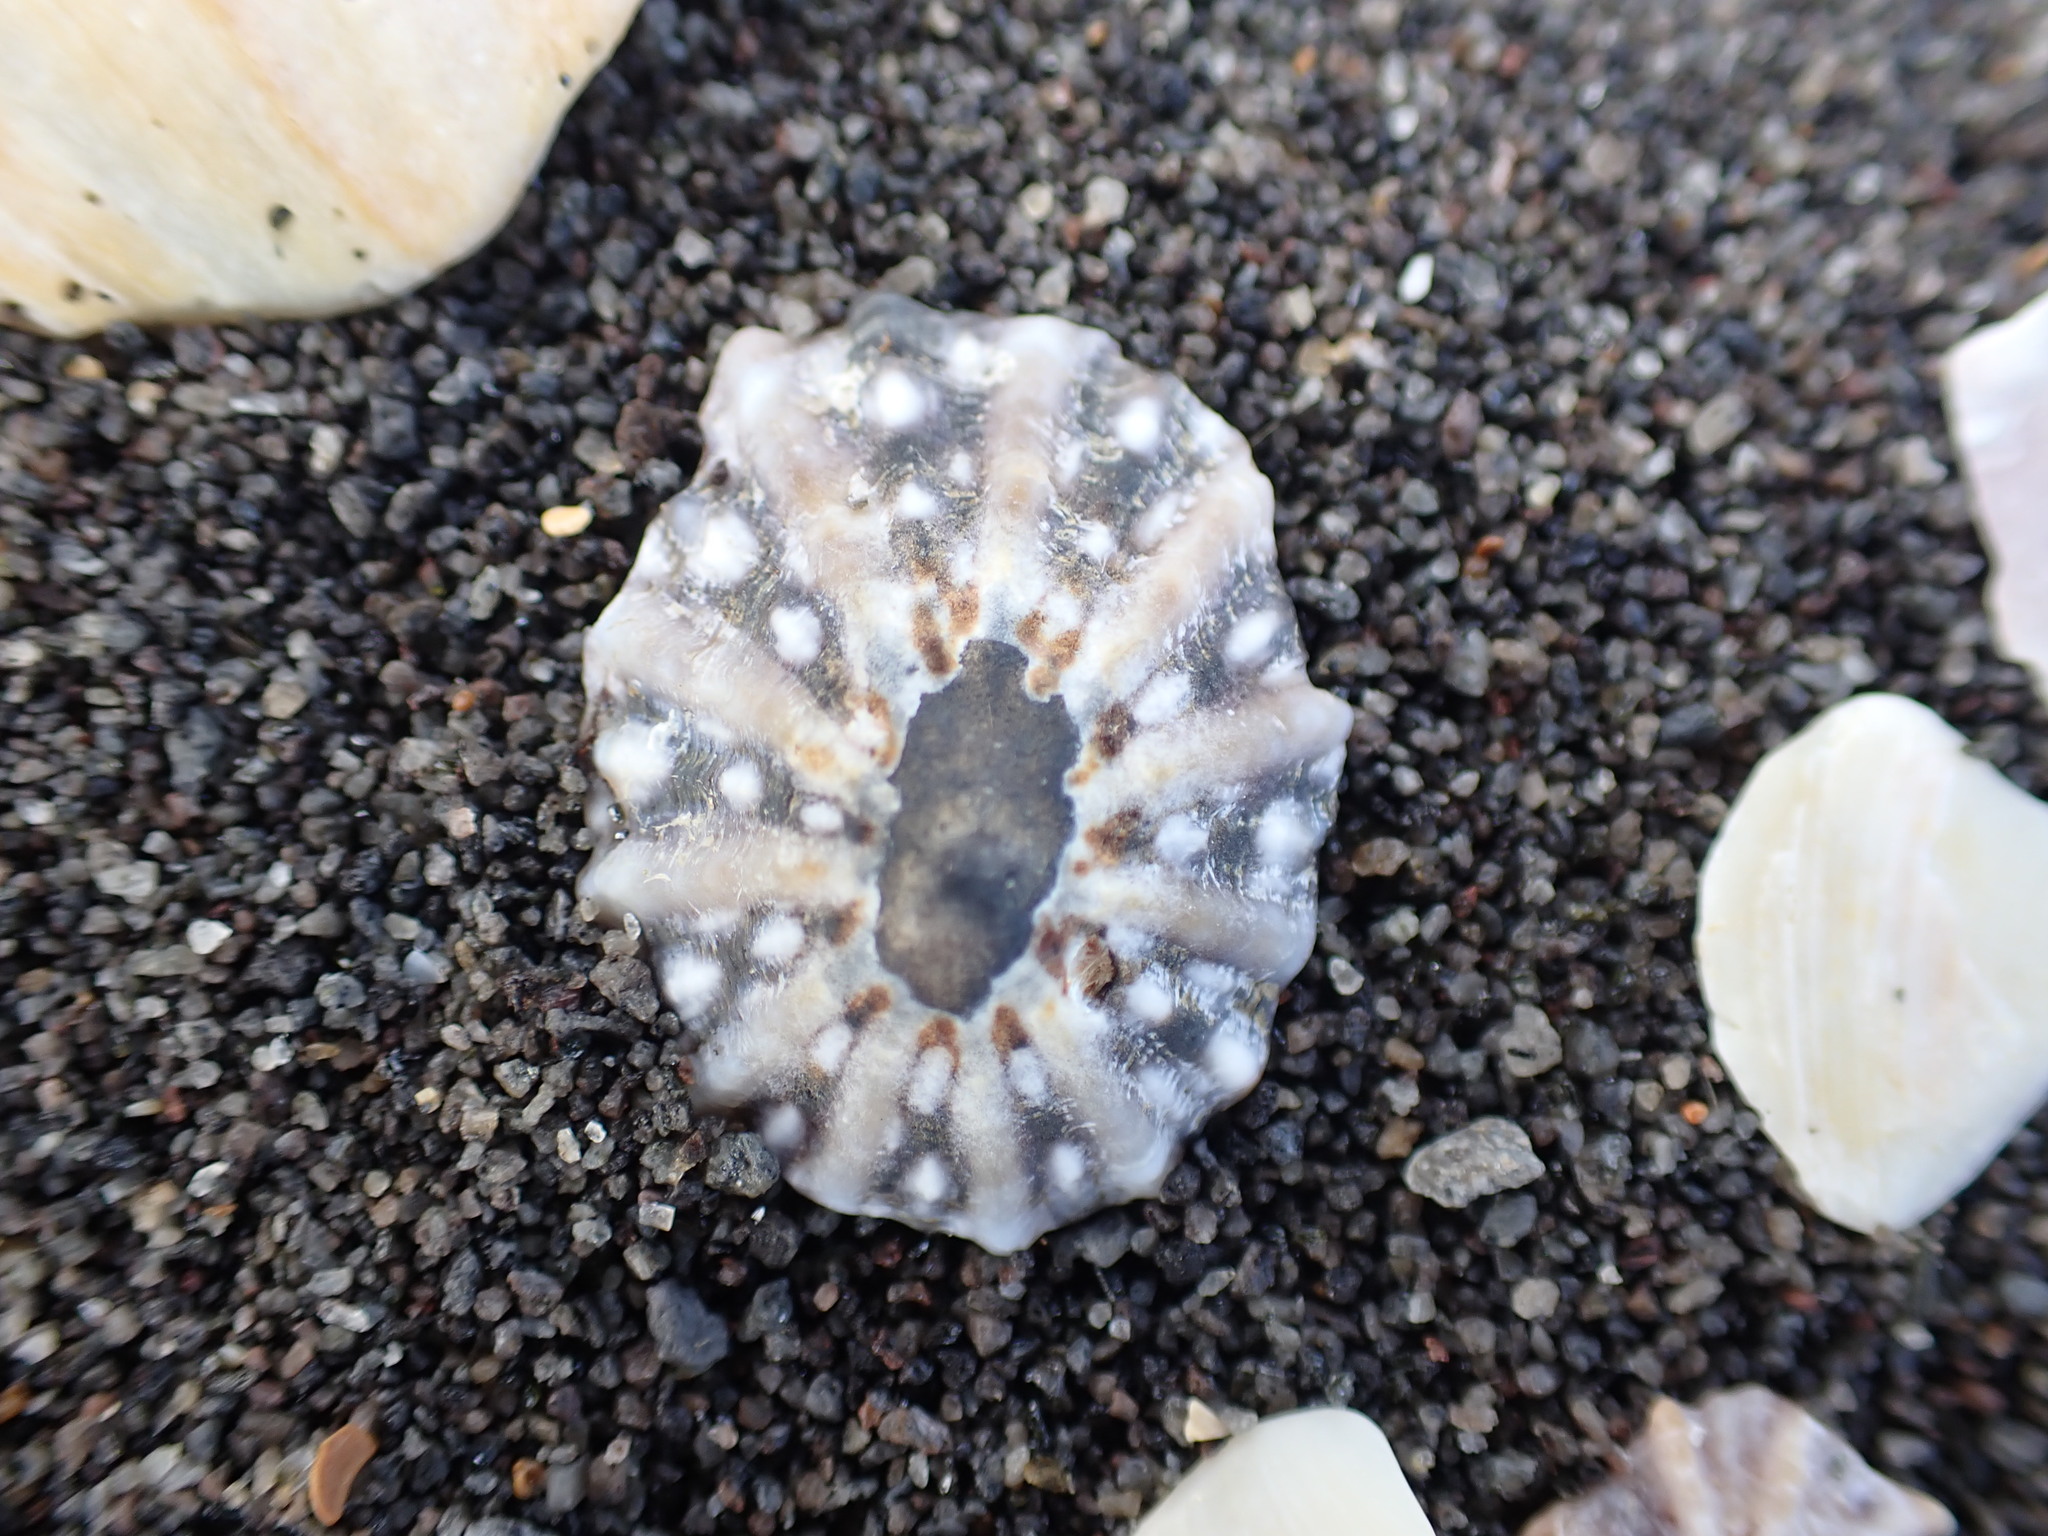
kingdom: Animalia
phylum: Mollusca
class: Gastropoda
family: Nacellidae
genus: Cellana
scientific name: Cellana ornata
